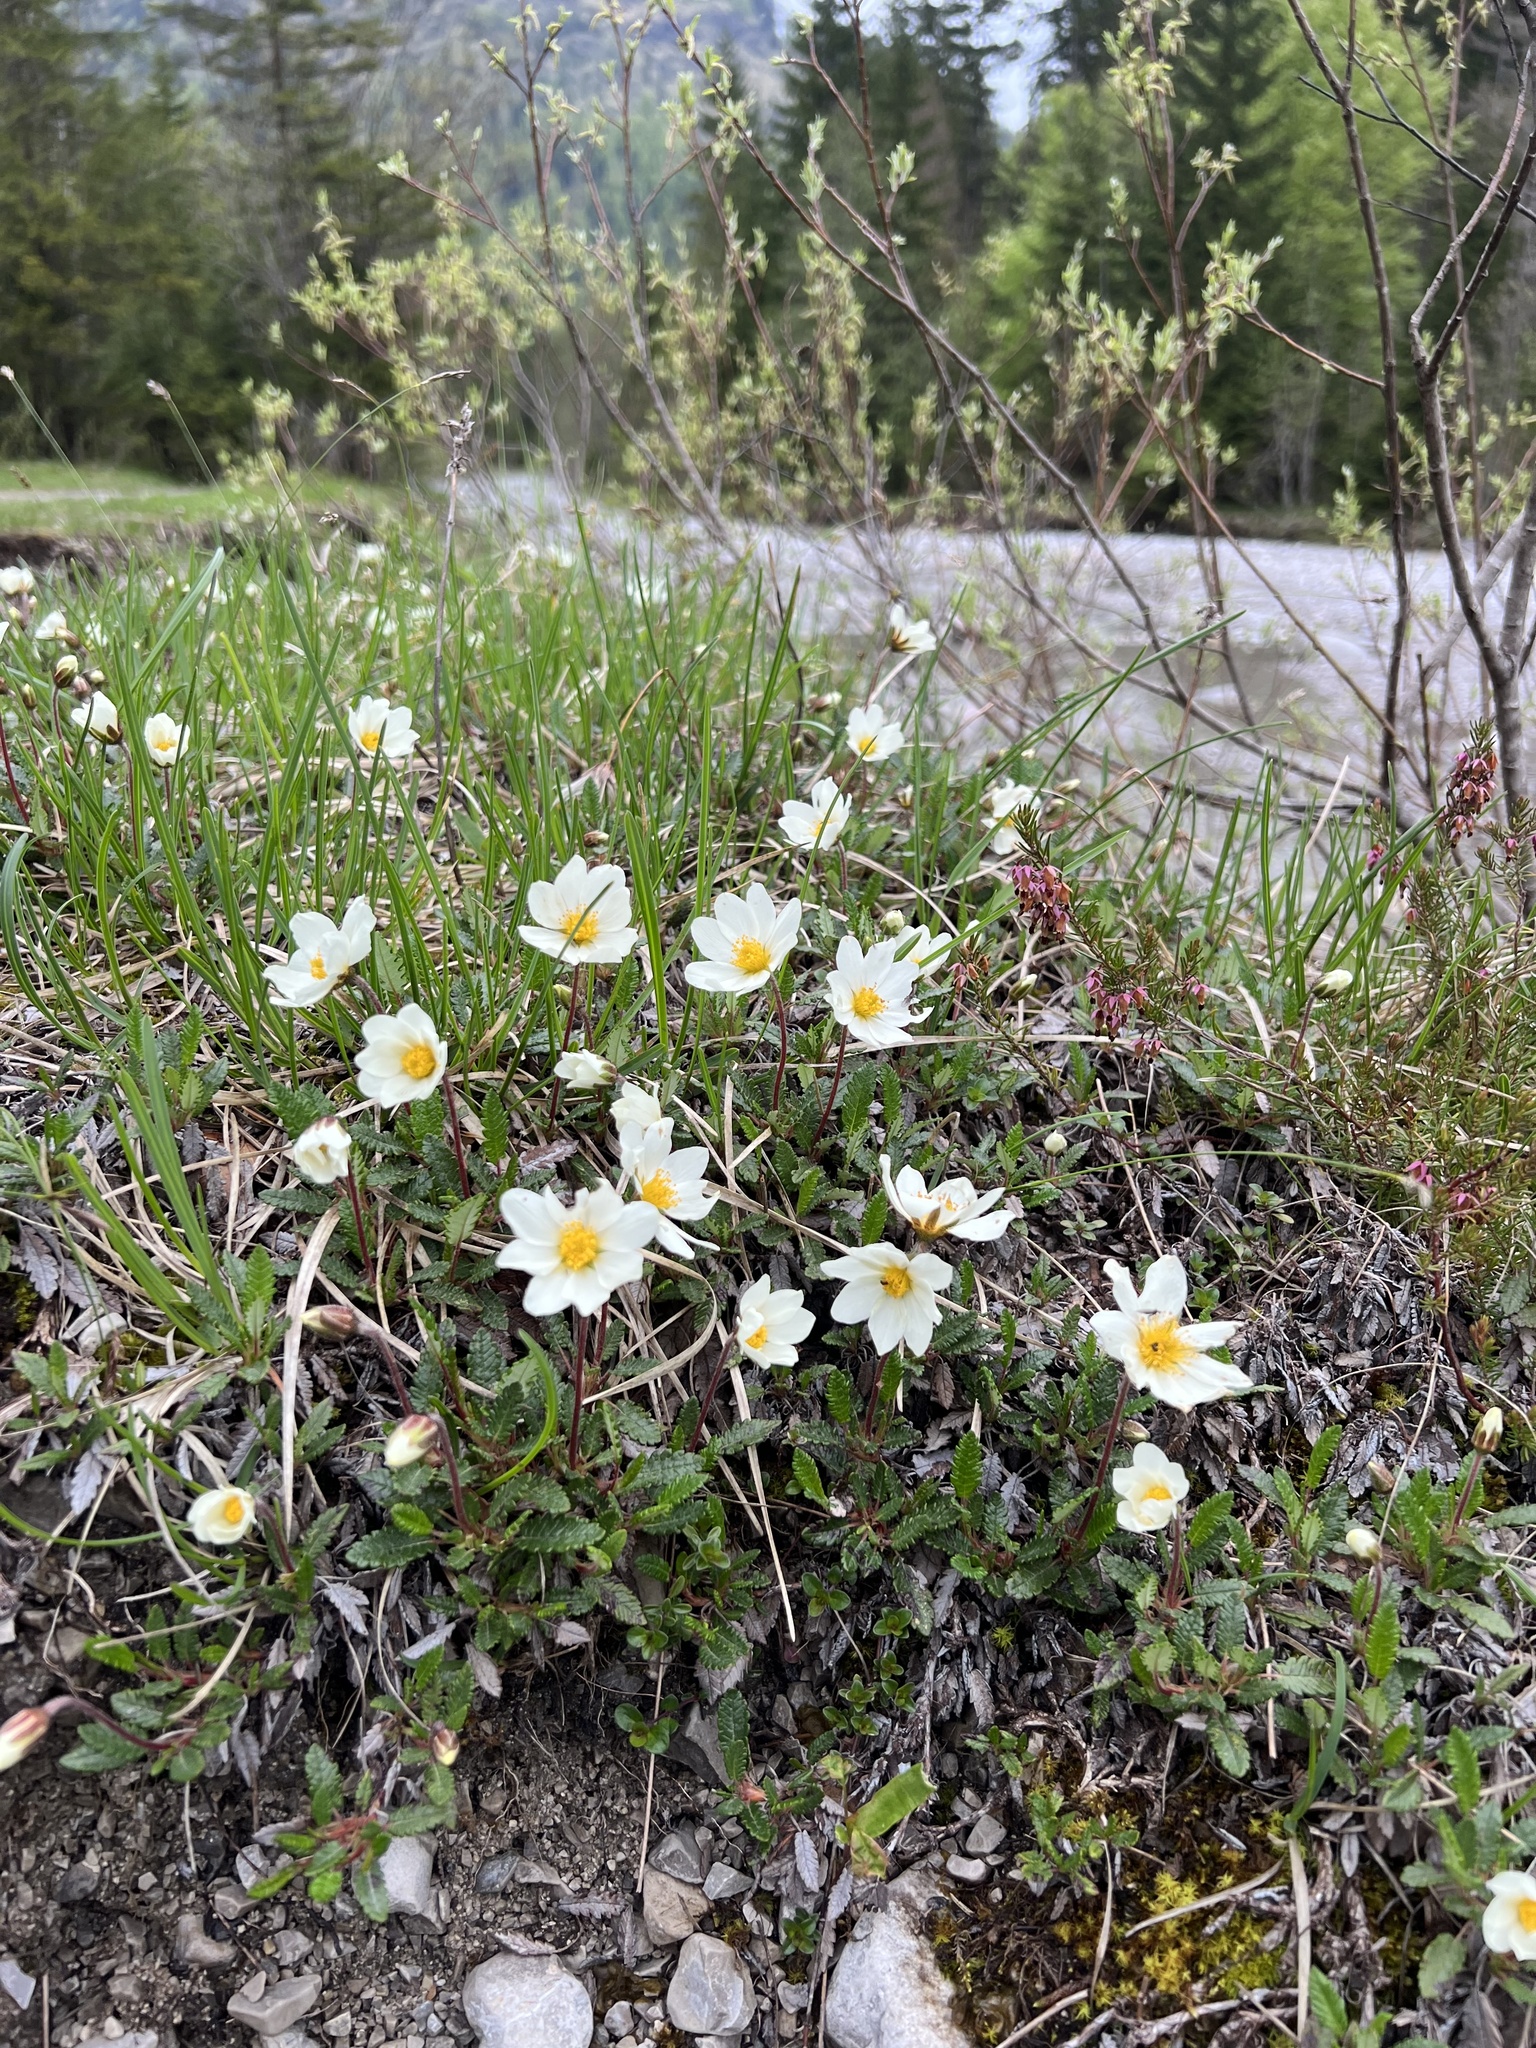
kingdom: Plantae
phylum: Tracheophyta
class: Magnoliopsida
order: Rosales
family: Rosaceae
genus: Dryas
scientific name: Dryas octopetala
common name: Eight-petal mountain-avens
